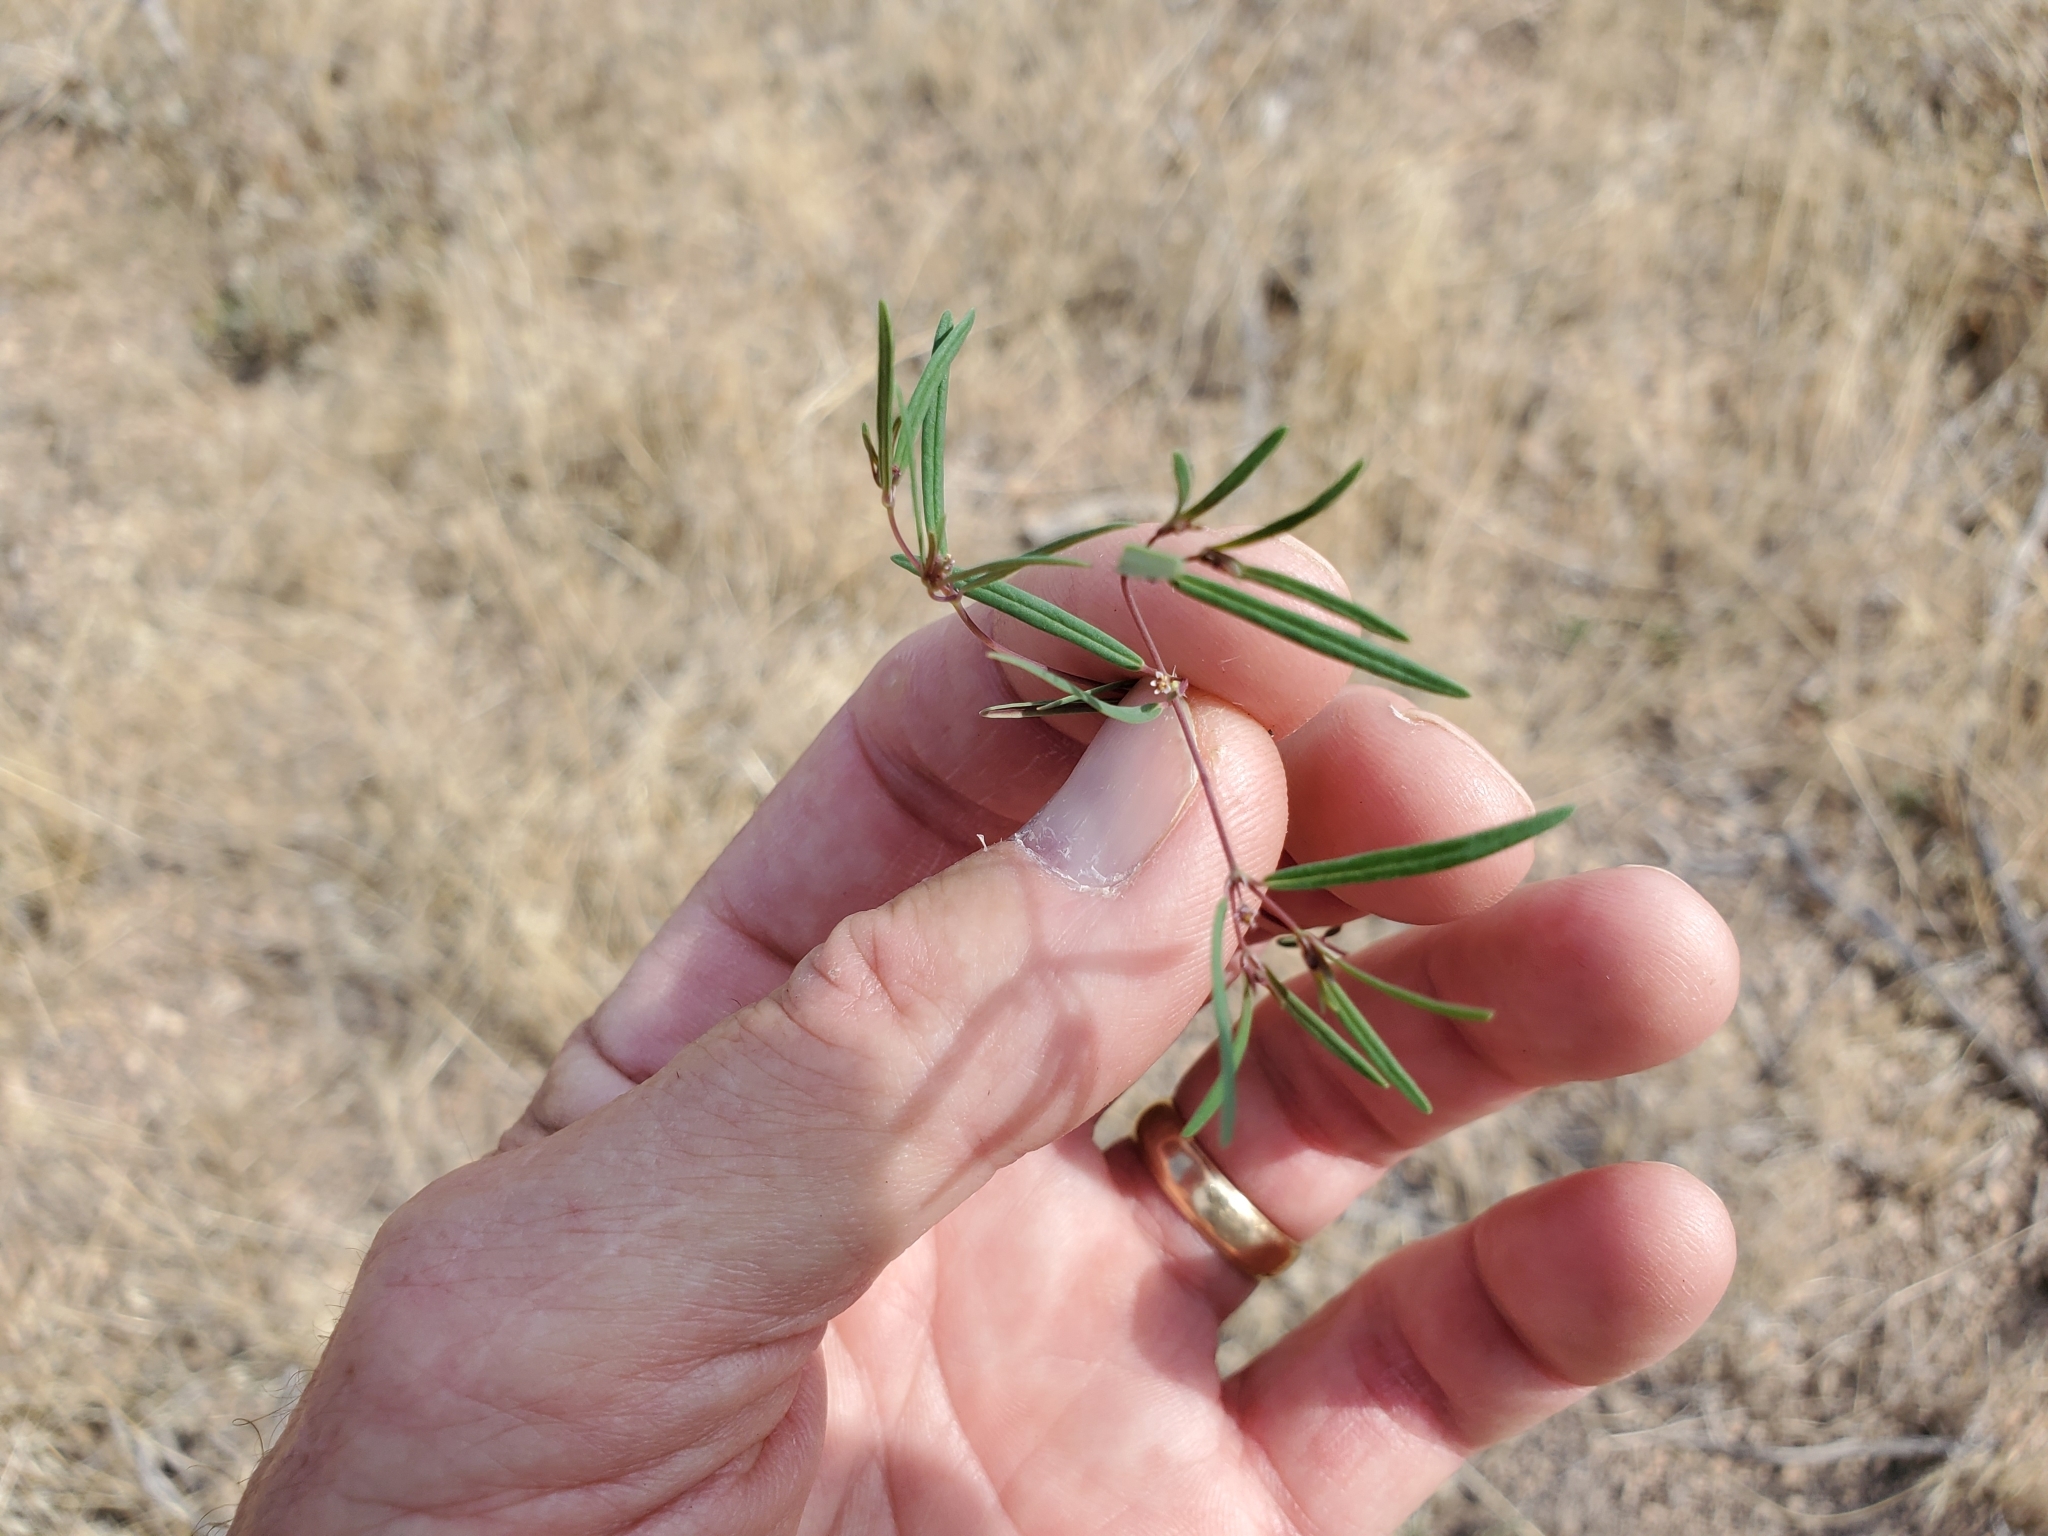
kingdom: Plantae
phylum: Tracheophyta
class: Magnoliopsida
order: Malpighiales
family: Euphorbiaceae
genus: Euphorbia
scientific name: Euphorbia revoluta
